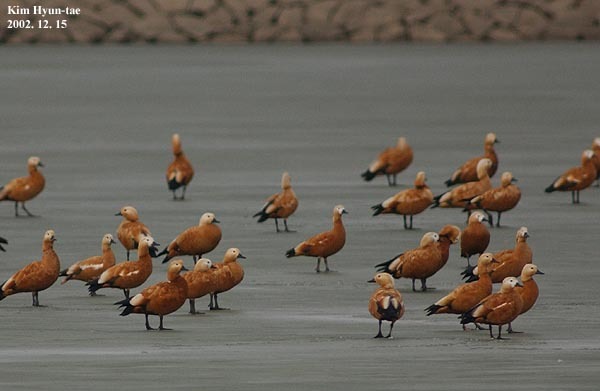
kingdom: Animalia
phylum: Chordata
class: Aves
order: Anseriformes
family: Anatidae
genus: Tadorna
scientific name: Tadorna ferruginea
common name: Ruddy shelduck
